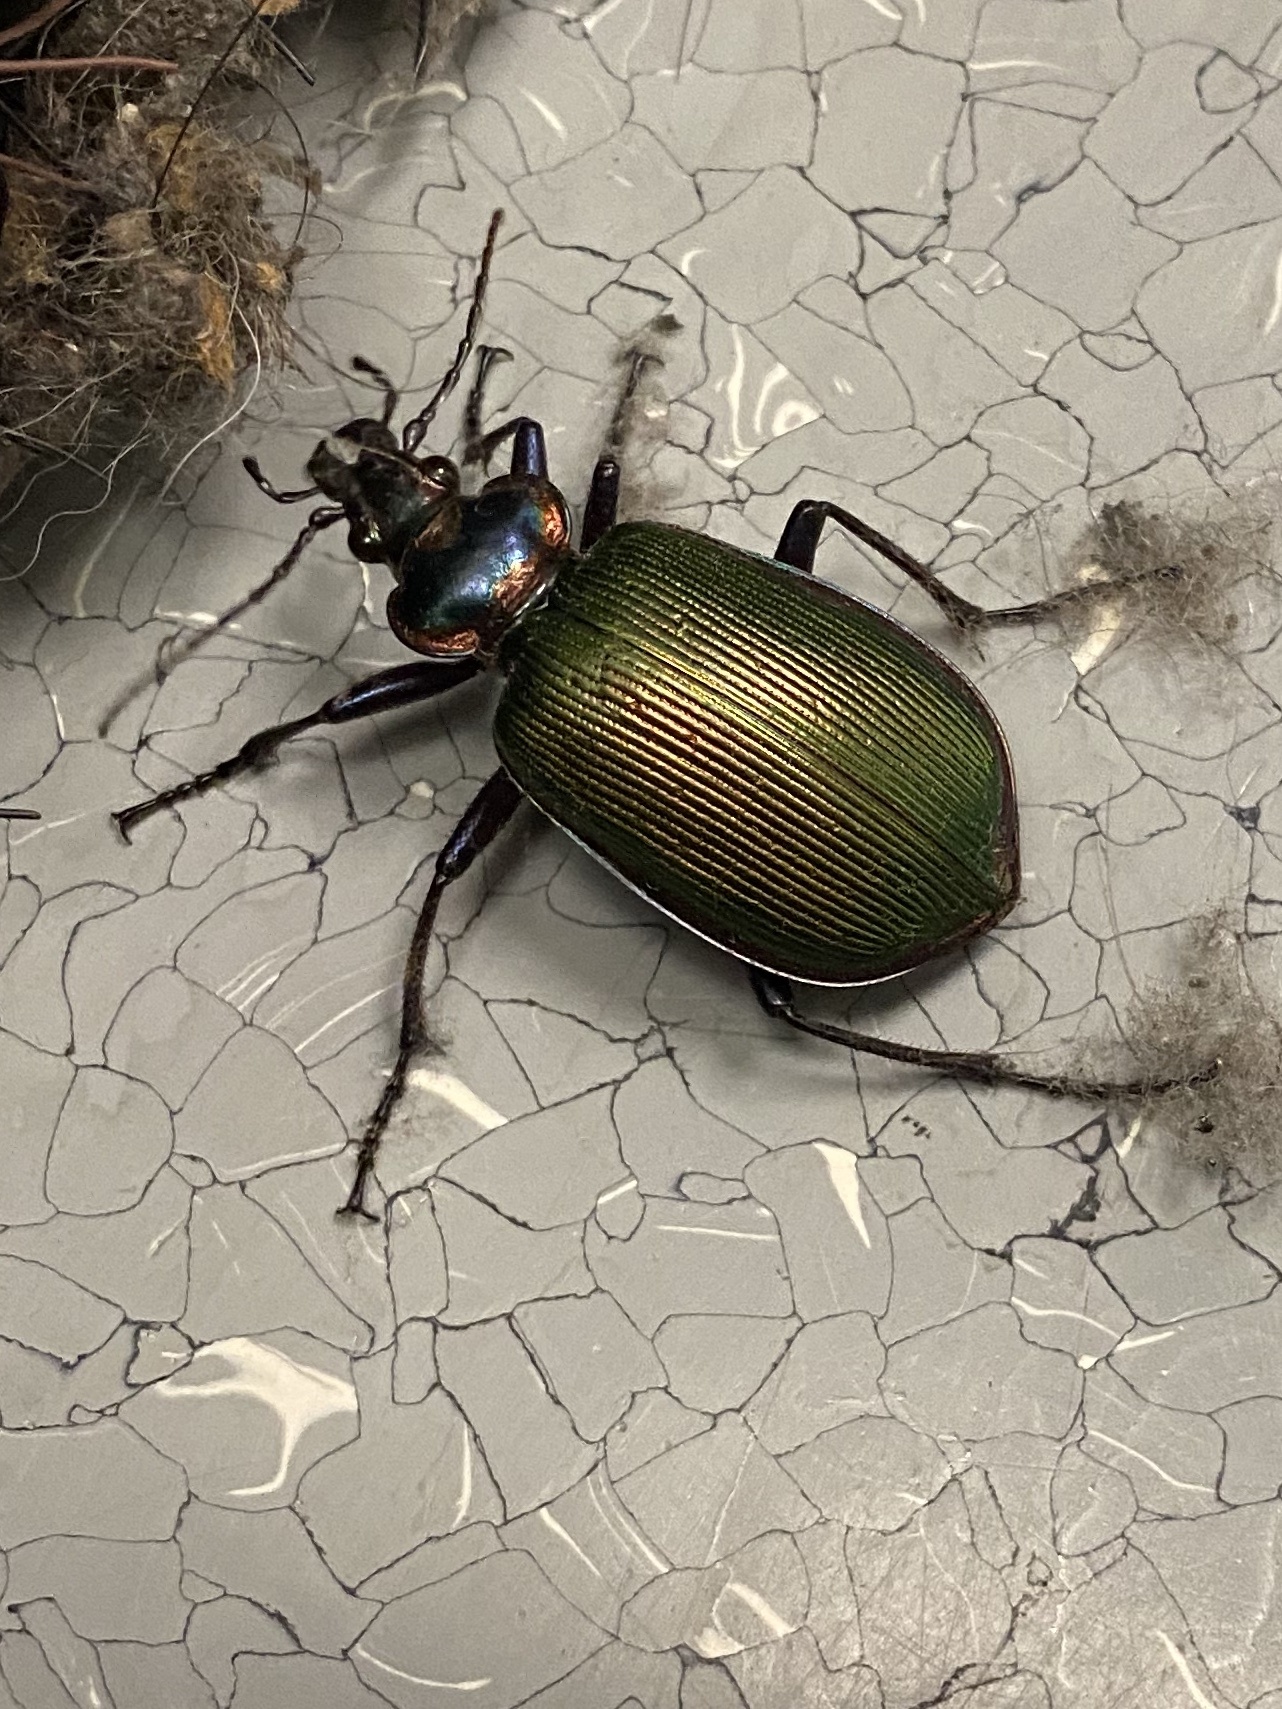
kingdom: Animalia
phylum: Arthropoda
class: Insecta
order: Coleoptera
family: Carabidae
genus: Calosoma
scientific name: Calosoma scrutator
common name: Fiery searcher beetle
